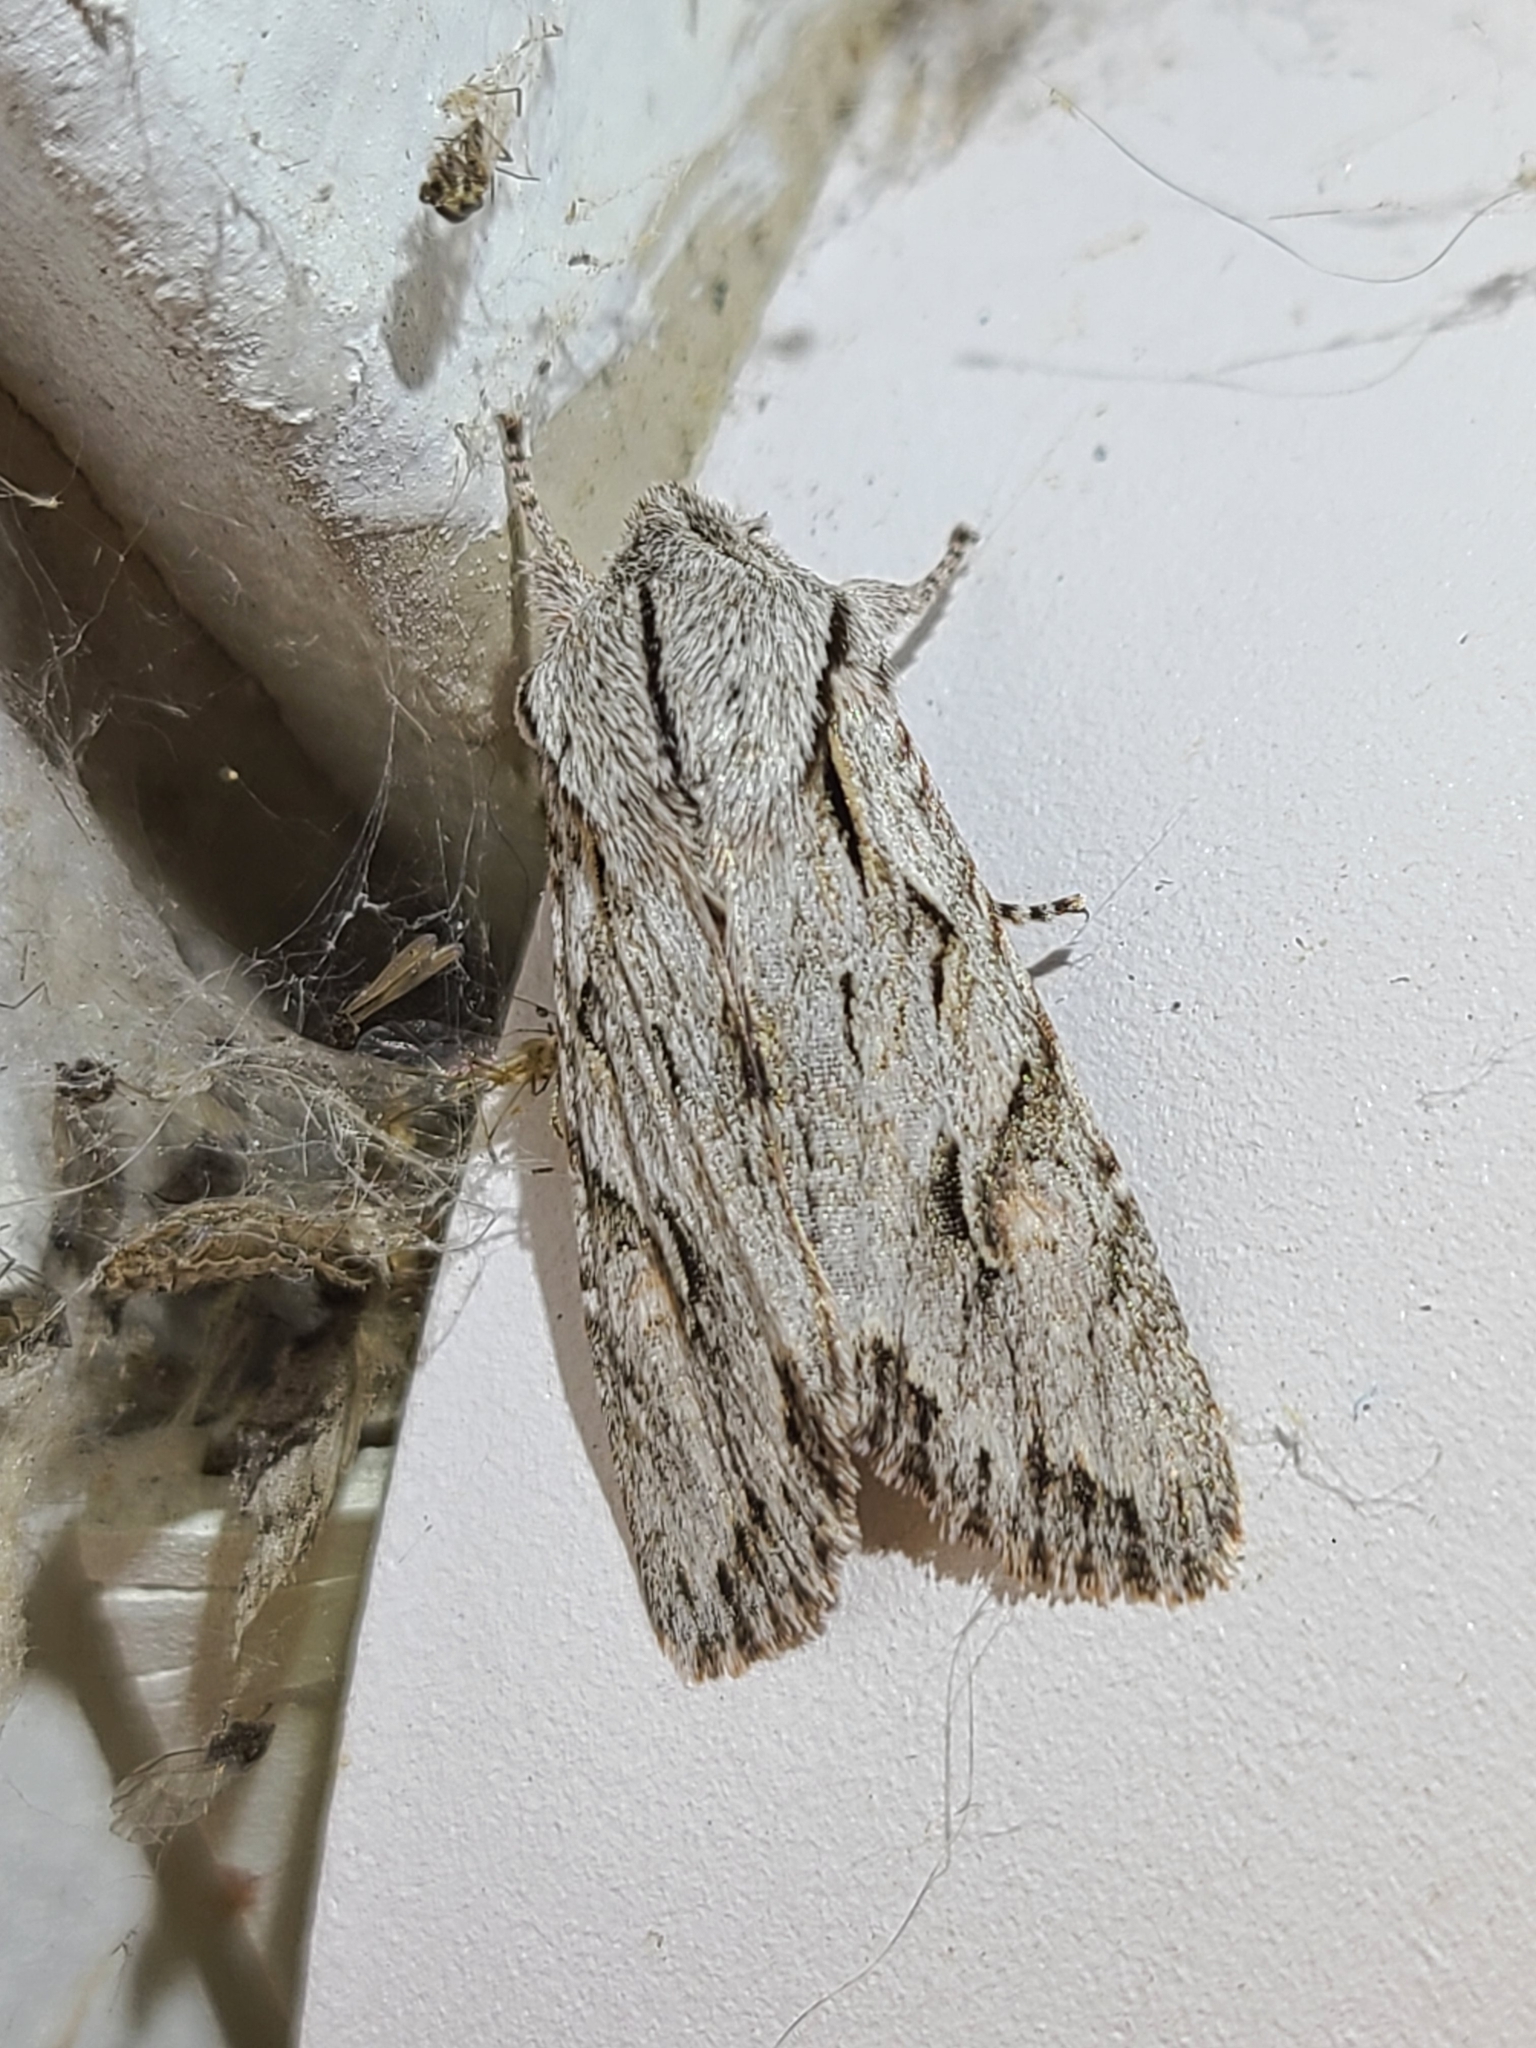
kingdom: Animalia
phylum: Arthropoda
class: Insecta
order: Lepidoptera
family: Noctuidae
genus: Egira
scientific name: Egira crucialis
